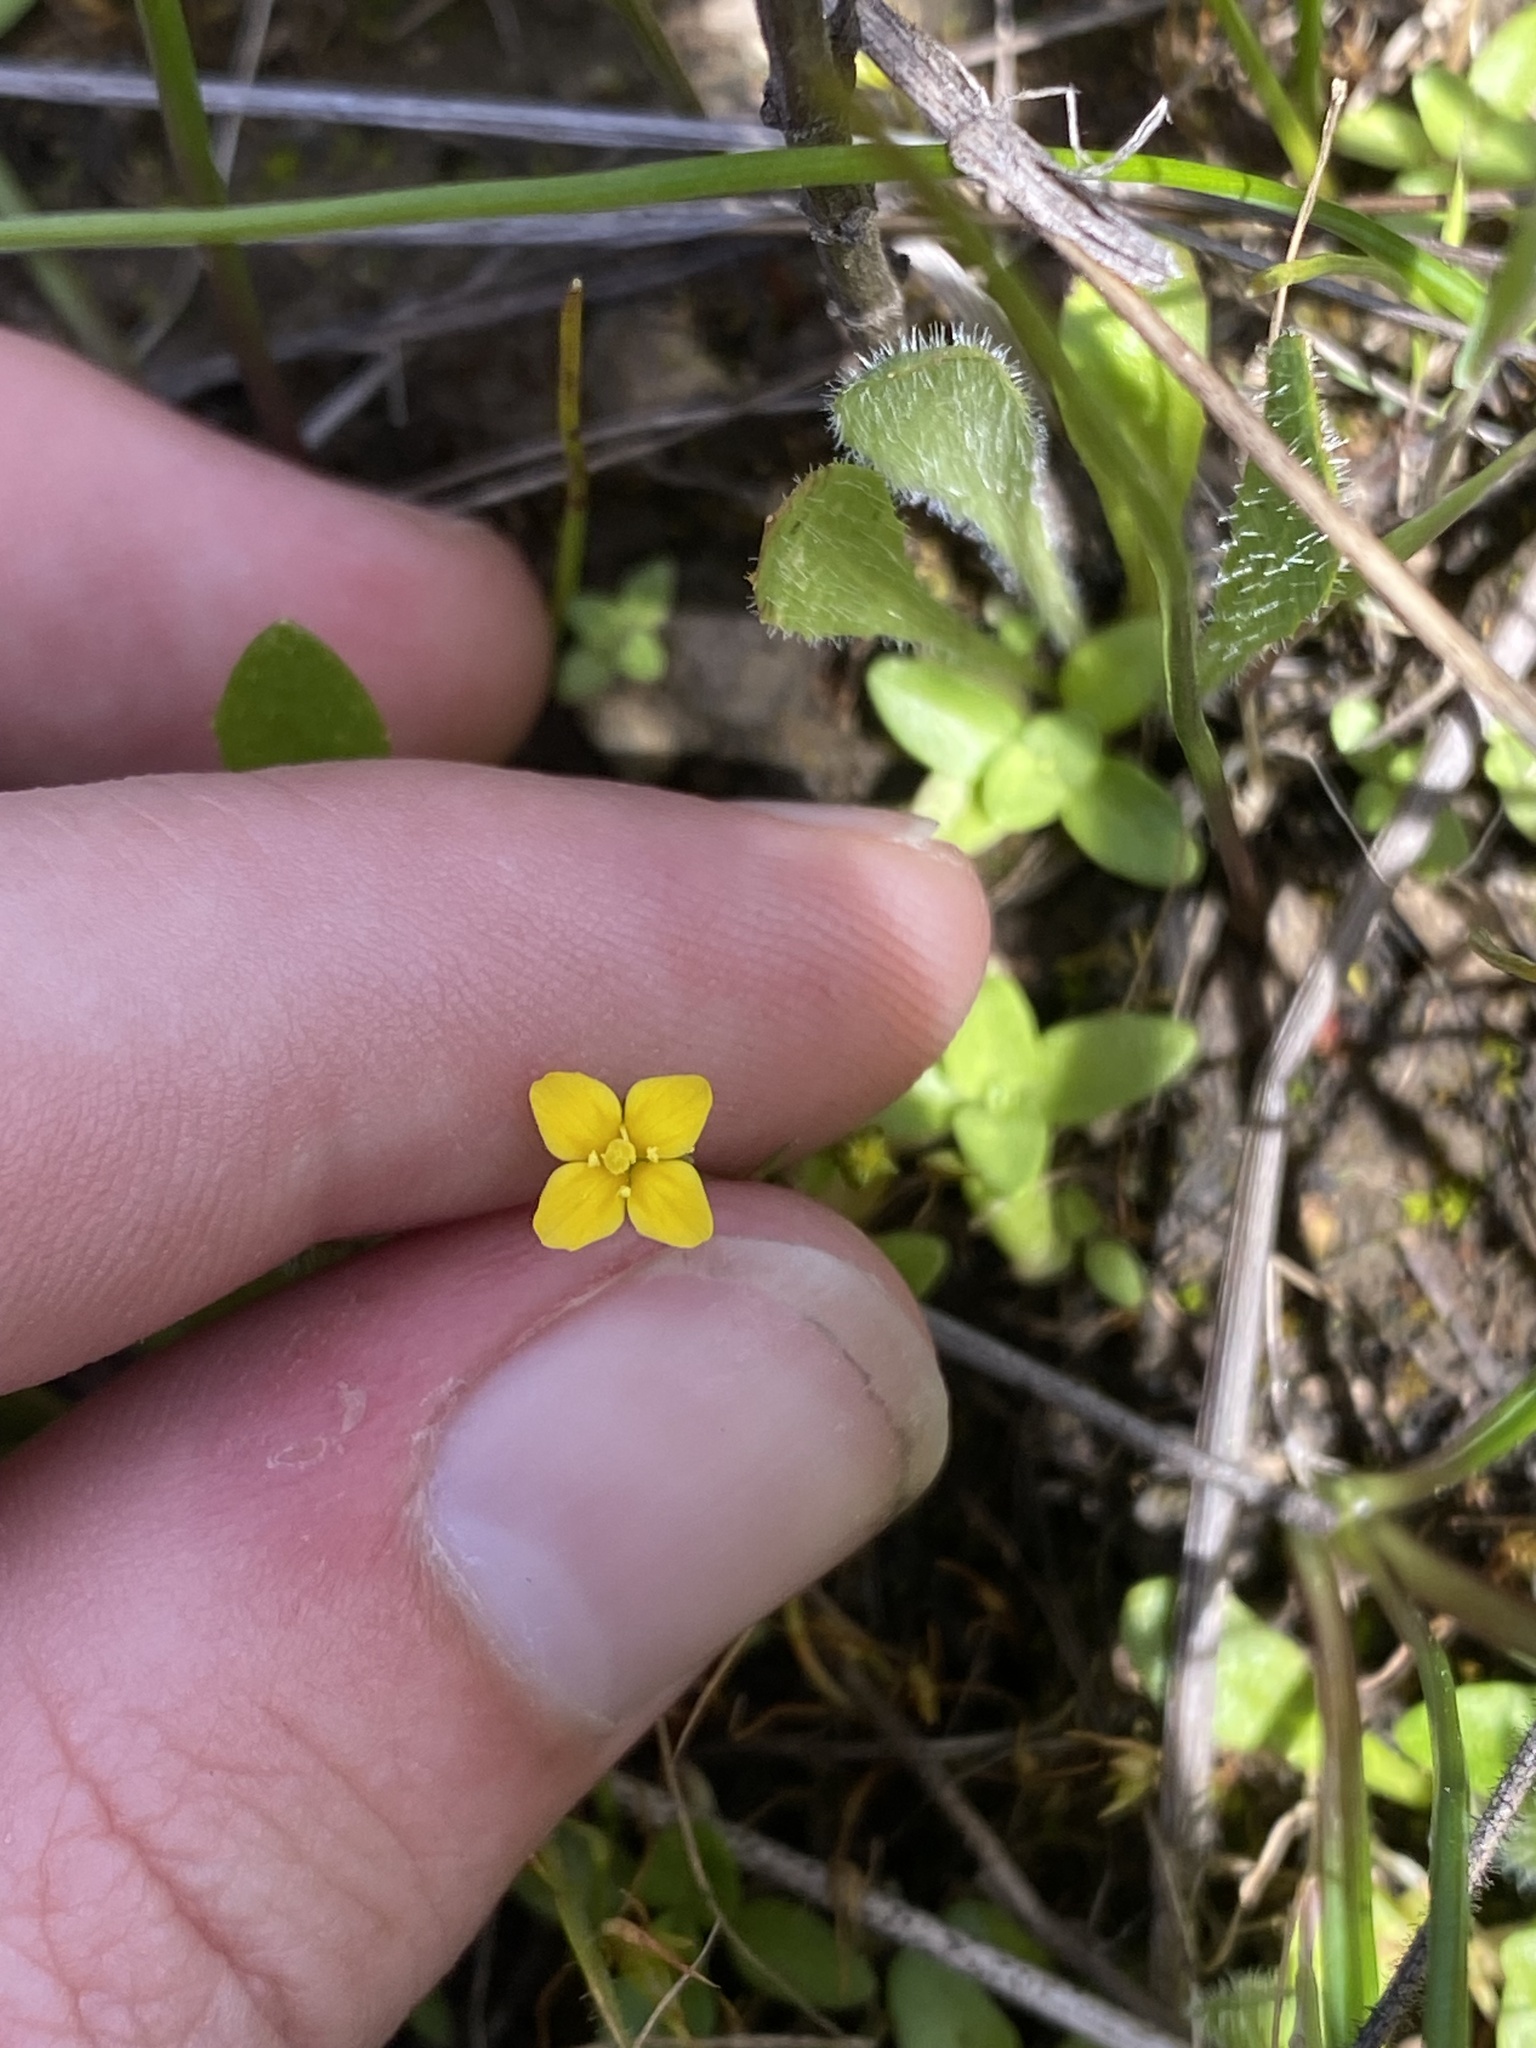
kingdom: Plantae
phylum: Tracheophyta
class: Magnoliopsida
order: Gentianales
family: Gentianaceae
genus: Microcala
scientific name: Microcala quadrangularis
